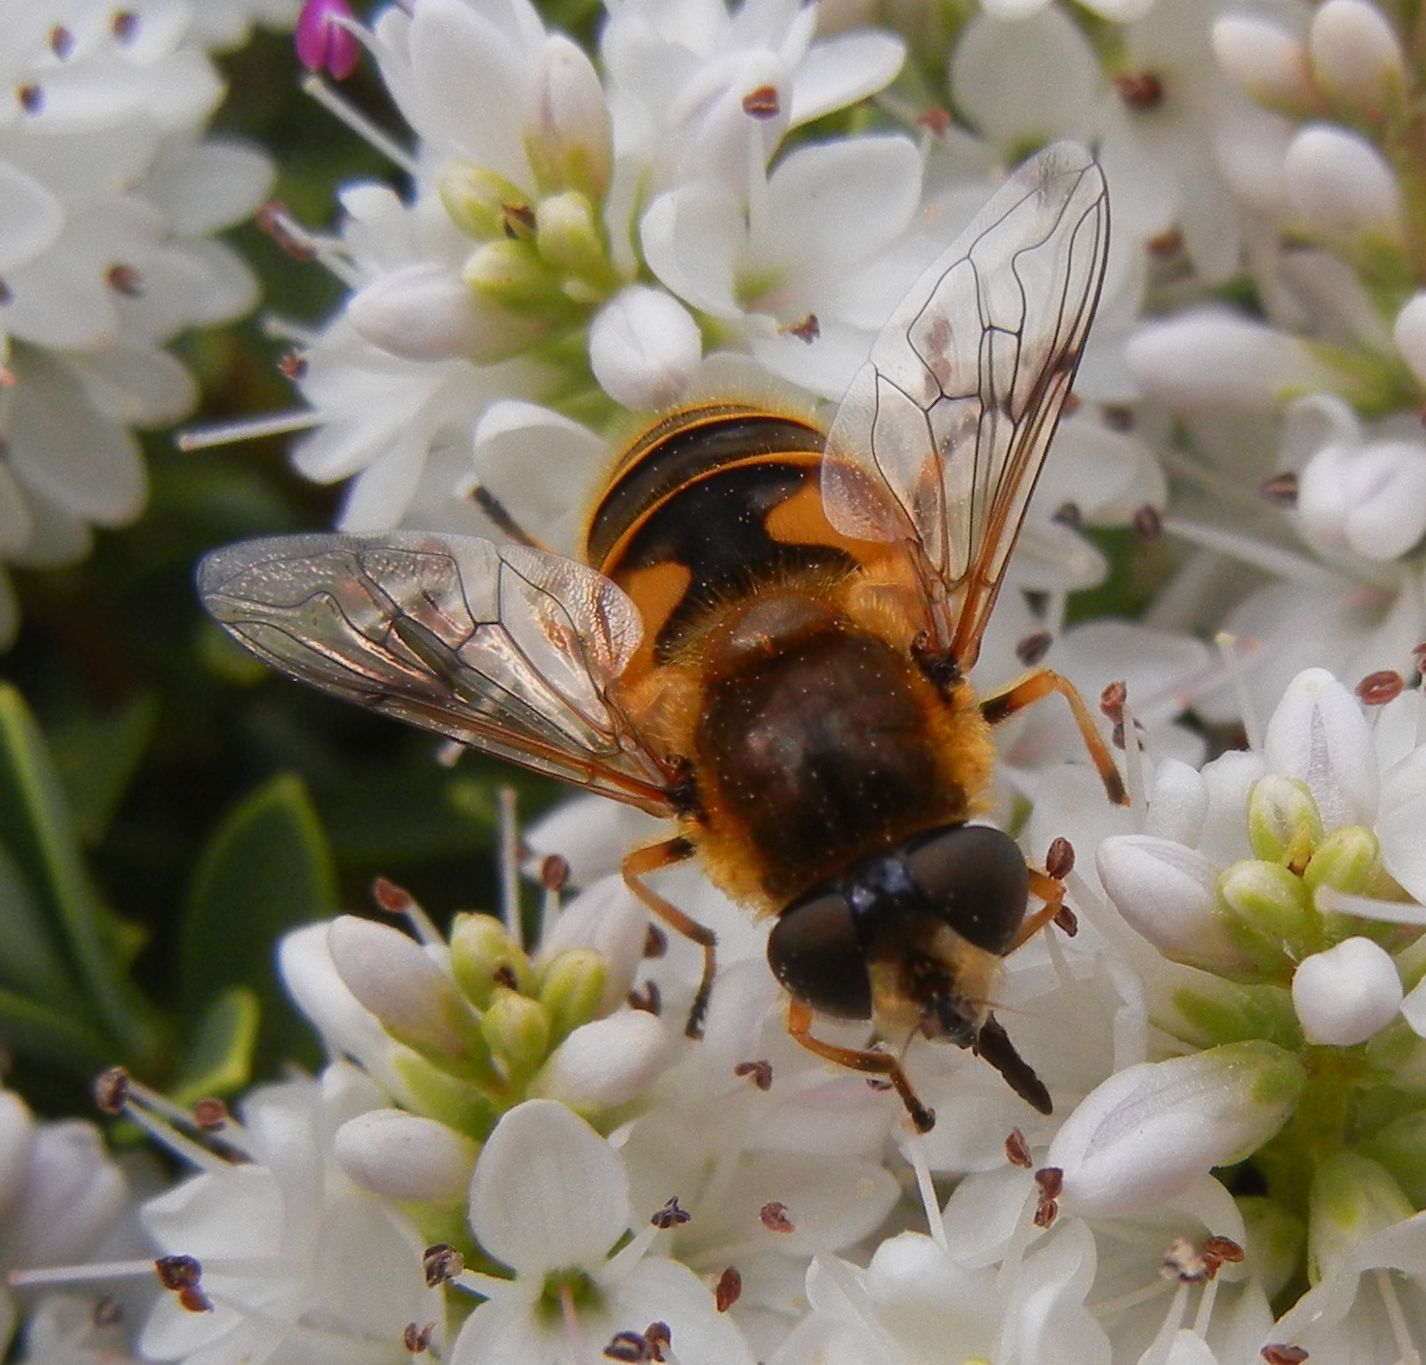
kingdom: Animalia
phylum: Arthropoda
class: Insecta
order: Diptera
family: Syrphidae
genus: Cheilosia
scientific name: Cheilosia morio
